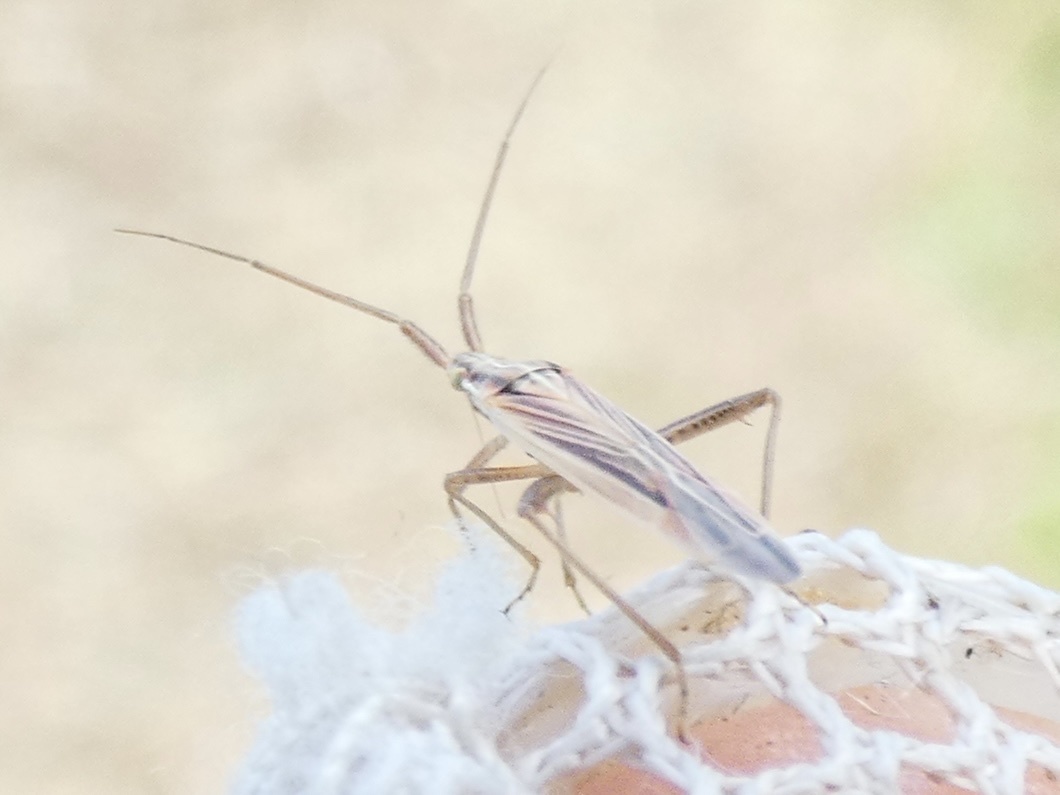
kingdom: Animalia
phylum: Arthropoda
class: Insecta
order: Hemiptera
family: Miridae
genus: Stenodema
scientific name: Stenodema calcarata
